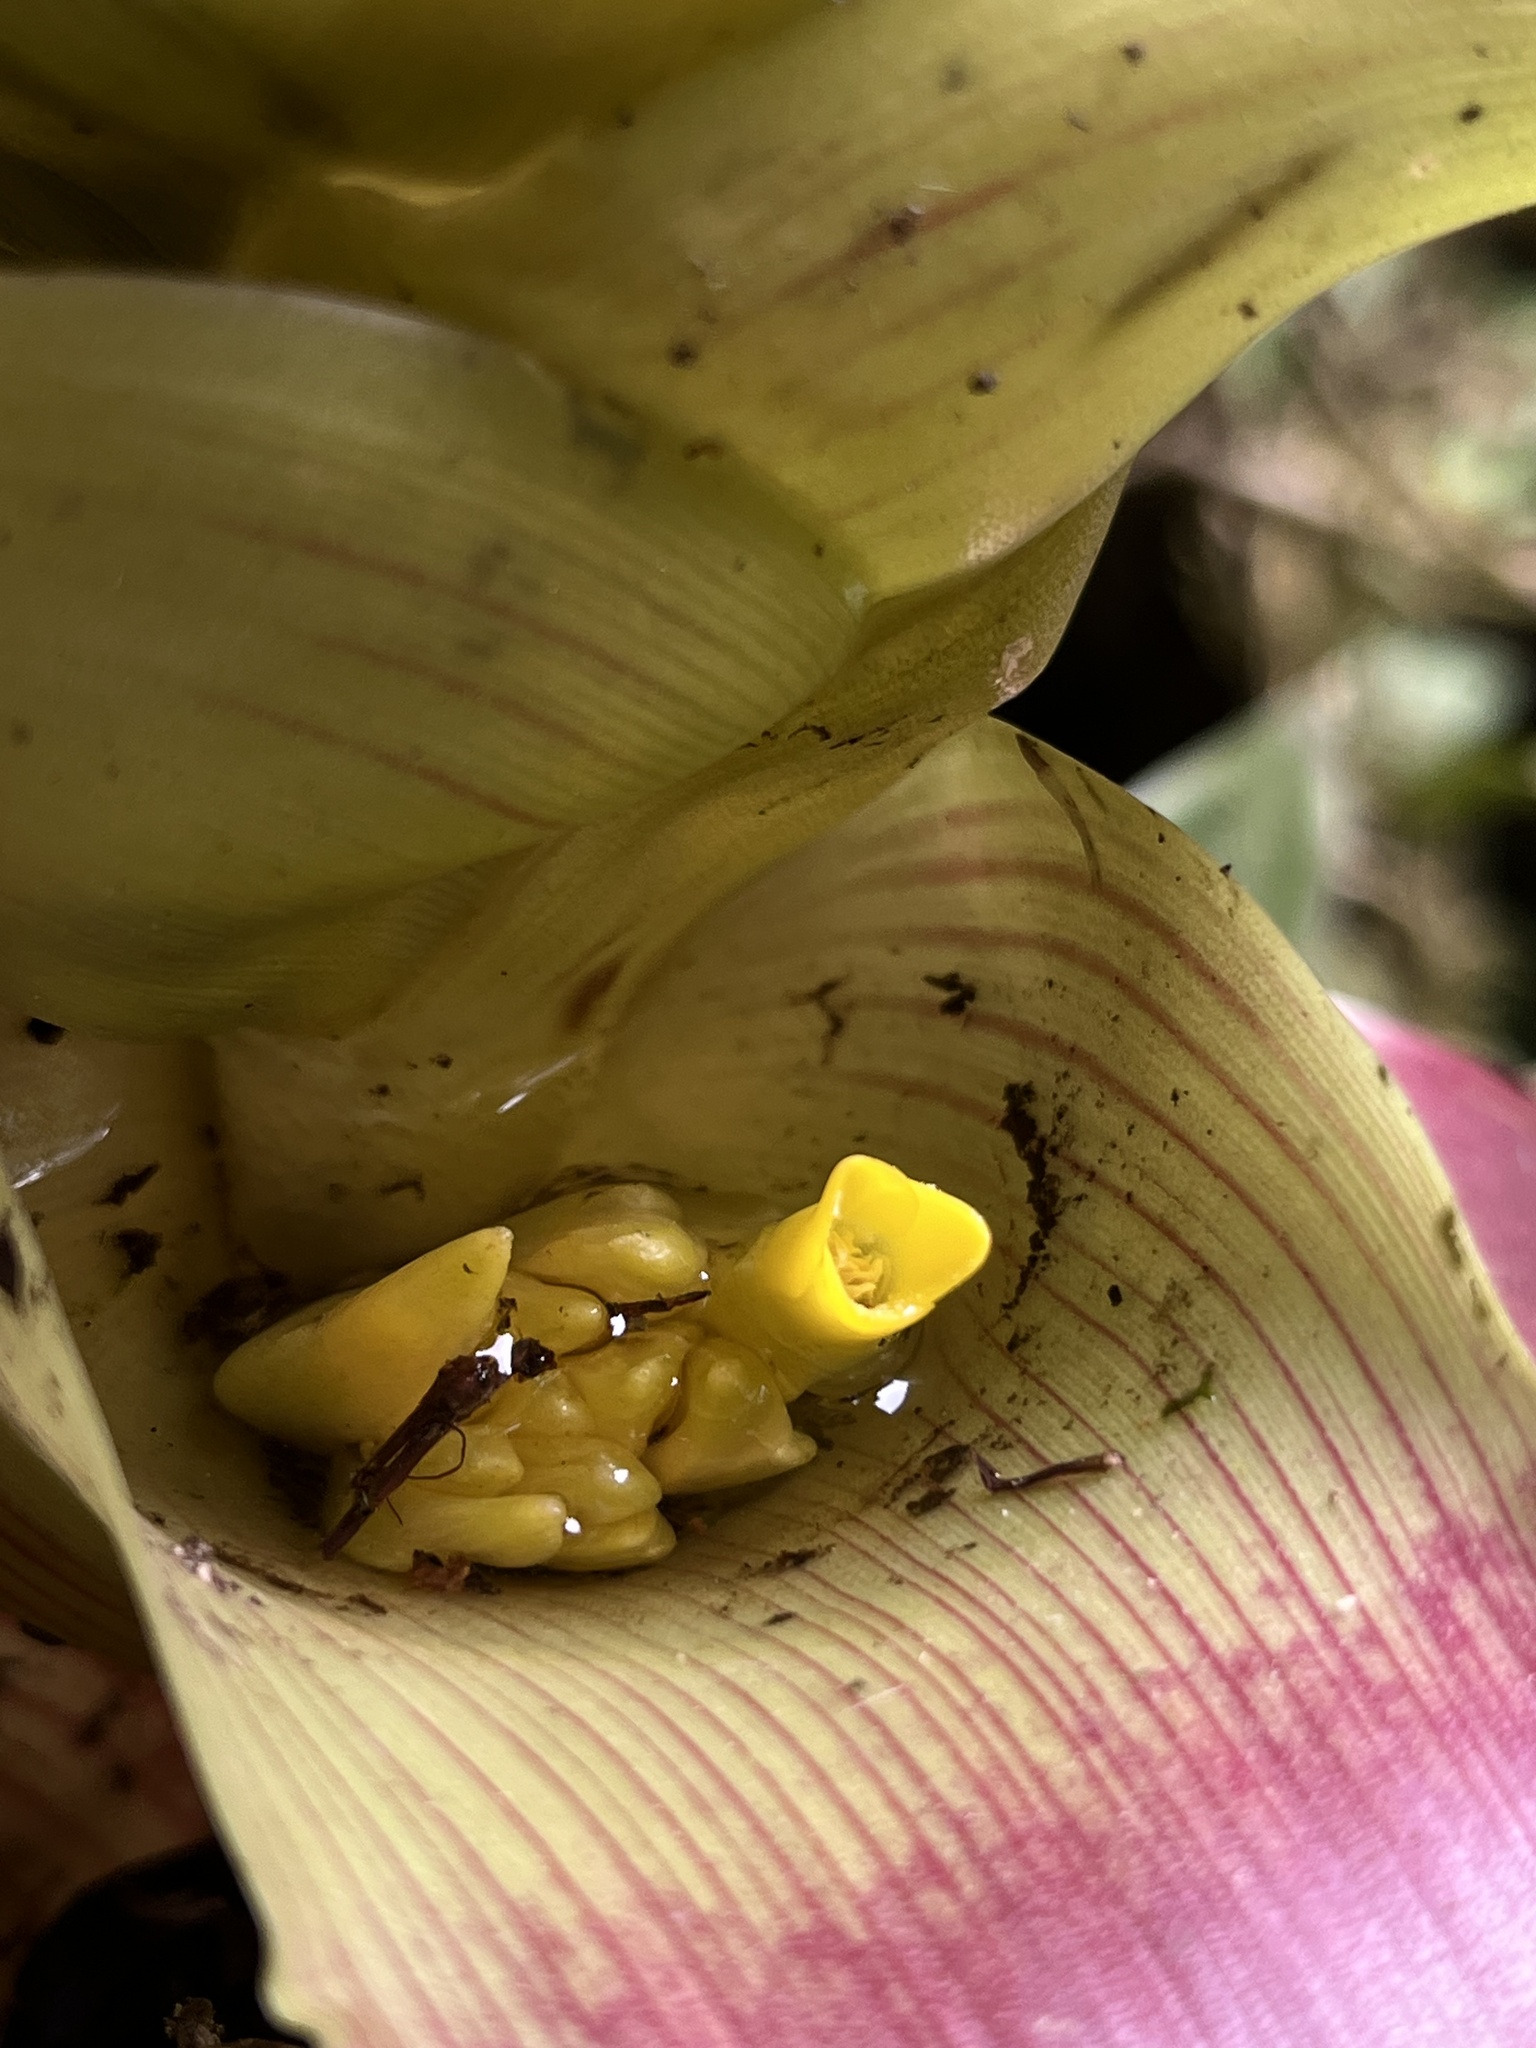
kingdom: Plantae
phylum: Tracheophyta
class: Liliopsida
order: Poales
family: Bromeliaceae
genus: Guzmania
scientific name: Guzmania squarrosa
